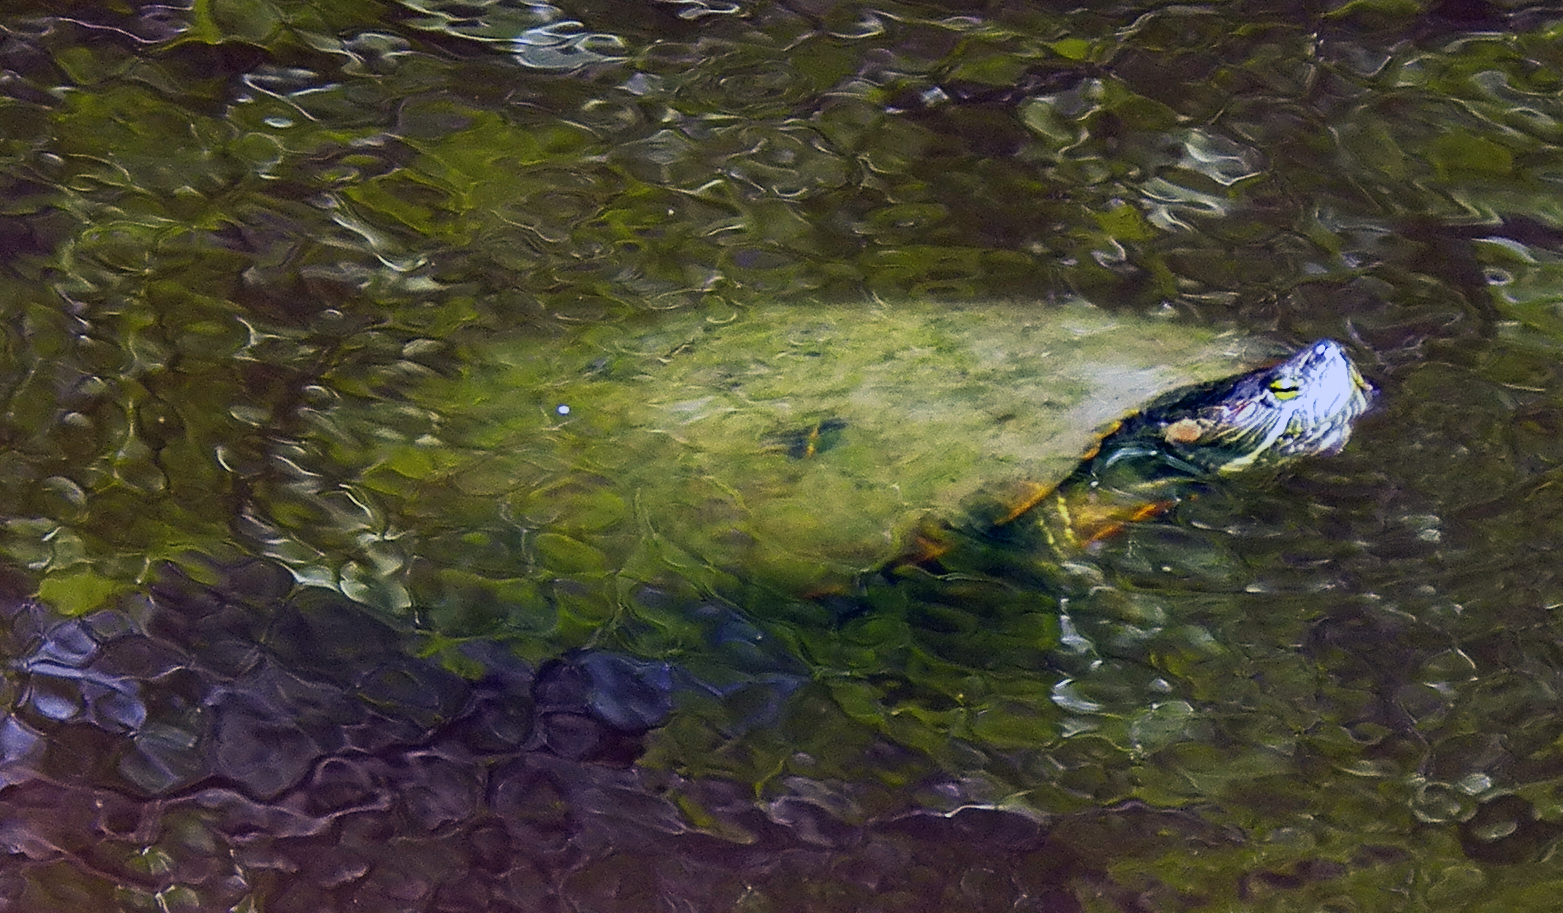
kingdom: Animalia
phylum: Chordata
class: Testudines
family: Emydidae
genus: Trachemys
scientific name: Trachemys scripta
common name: Slider
